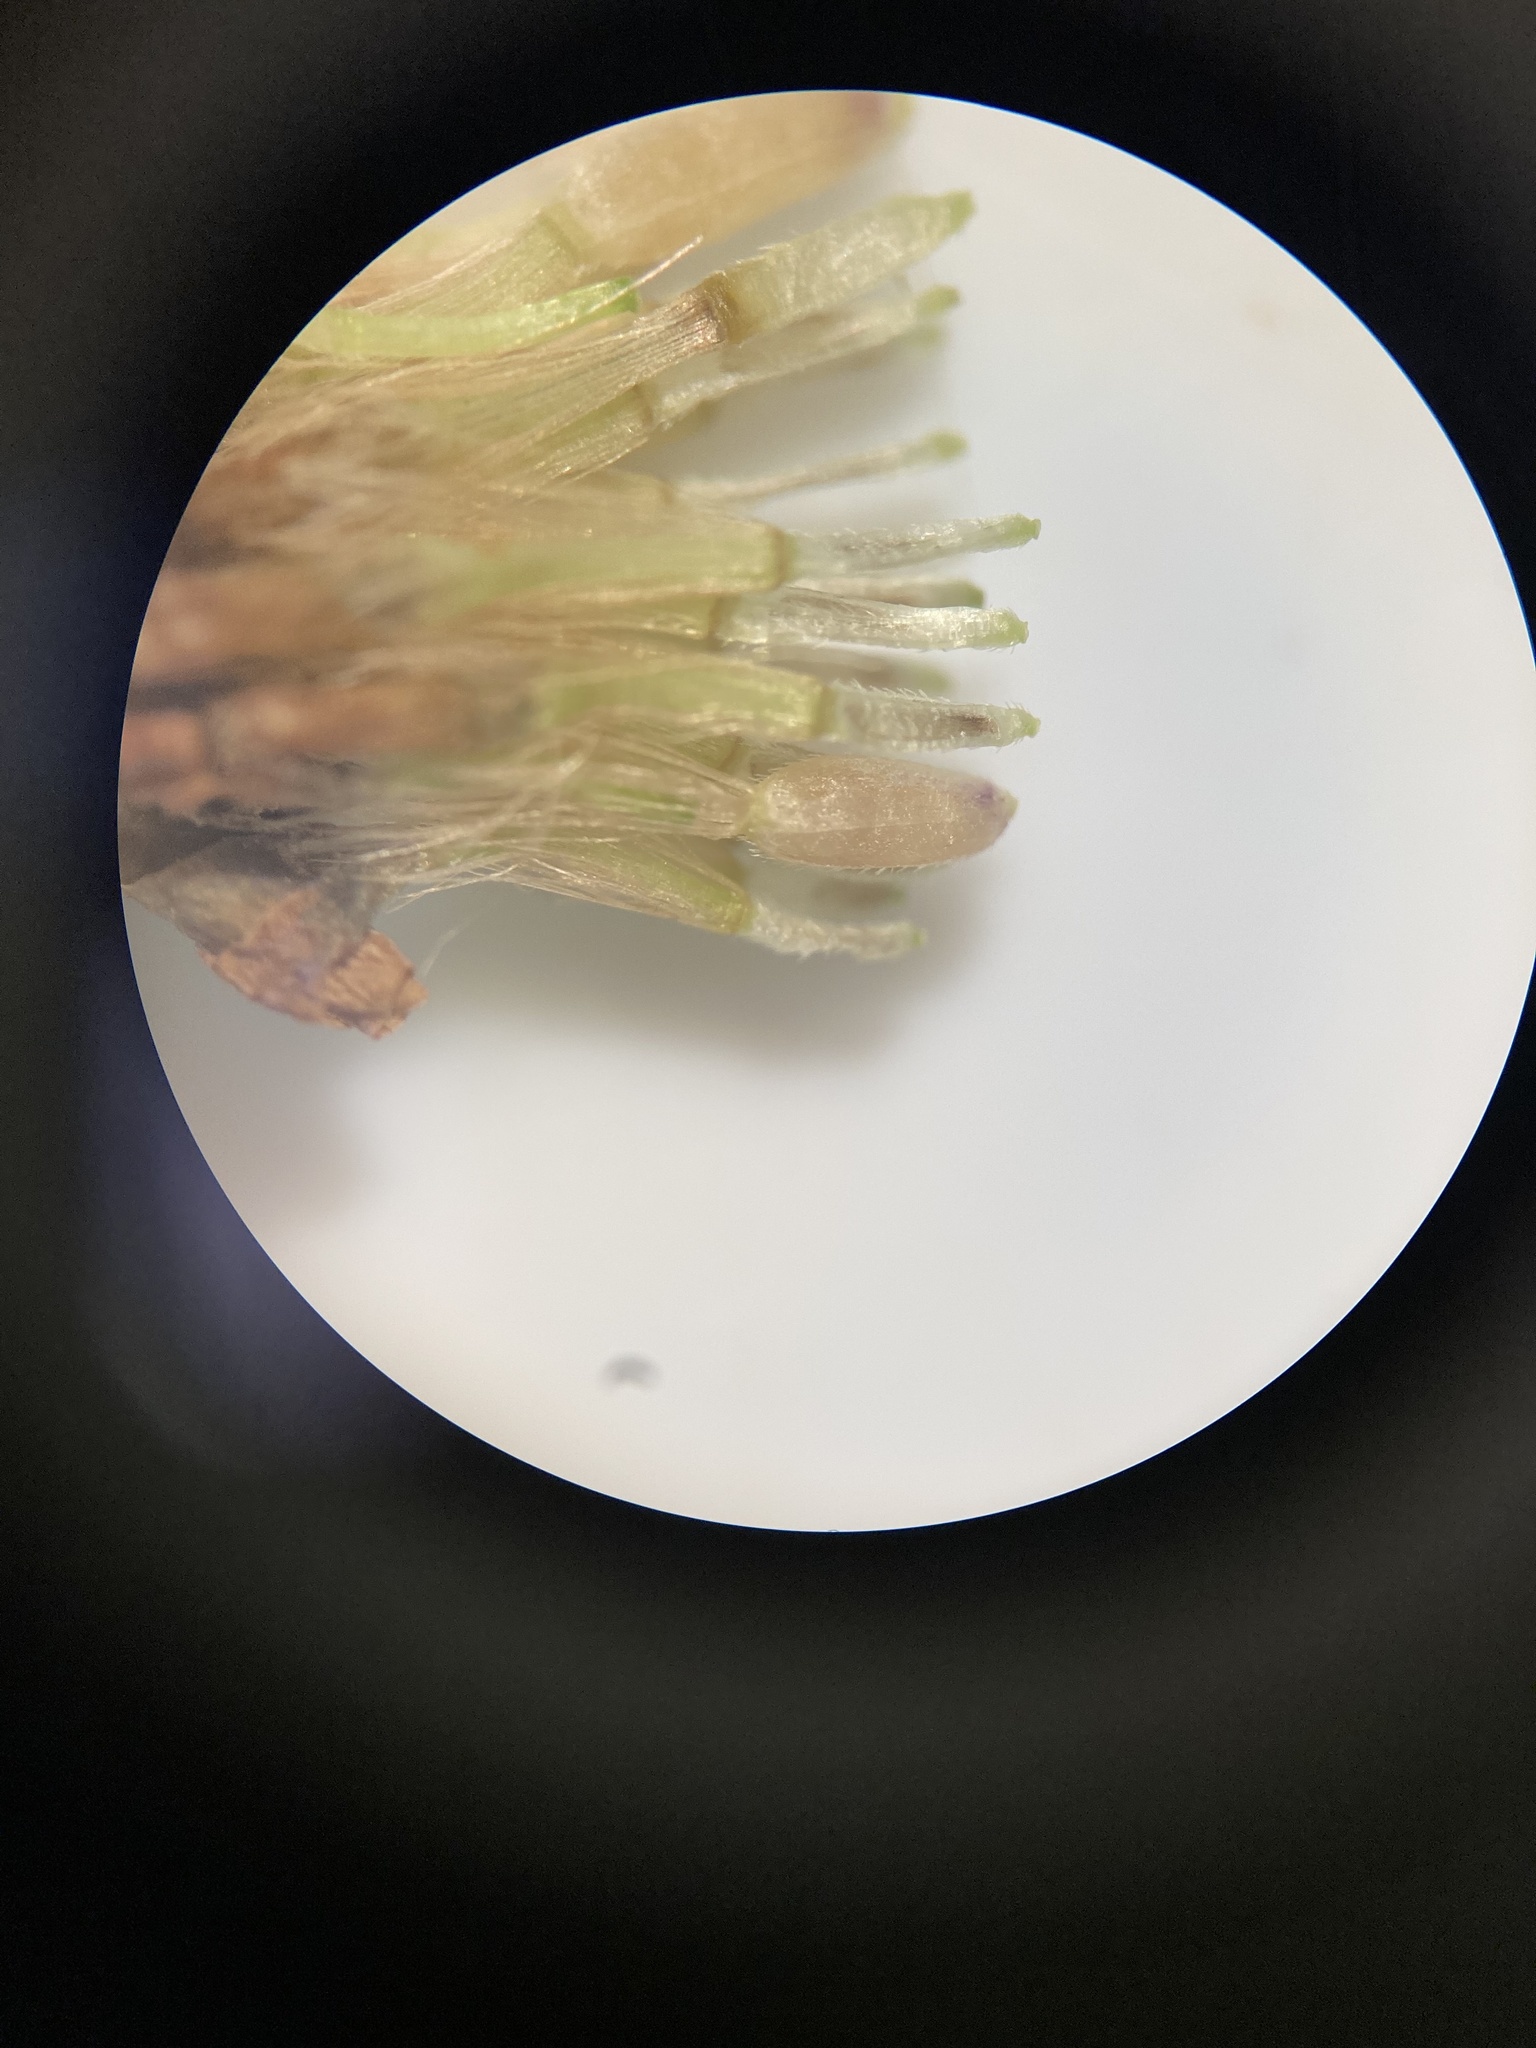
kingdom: Plantae
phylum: Tracheophyta
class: Magnoliopsida
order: Asterales
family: Asteraceae
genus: Symphyotrichum
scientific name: Symphyotrichum drummondii
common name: Drummond's aster
